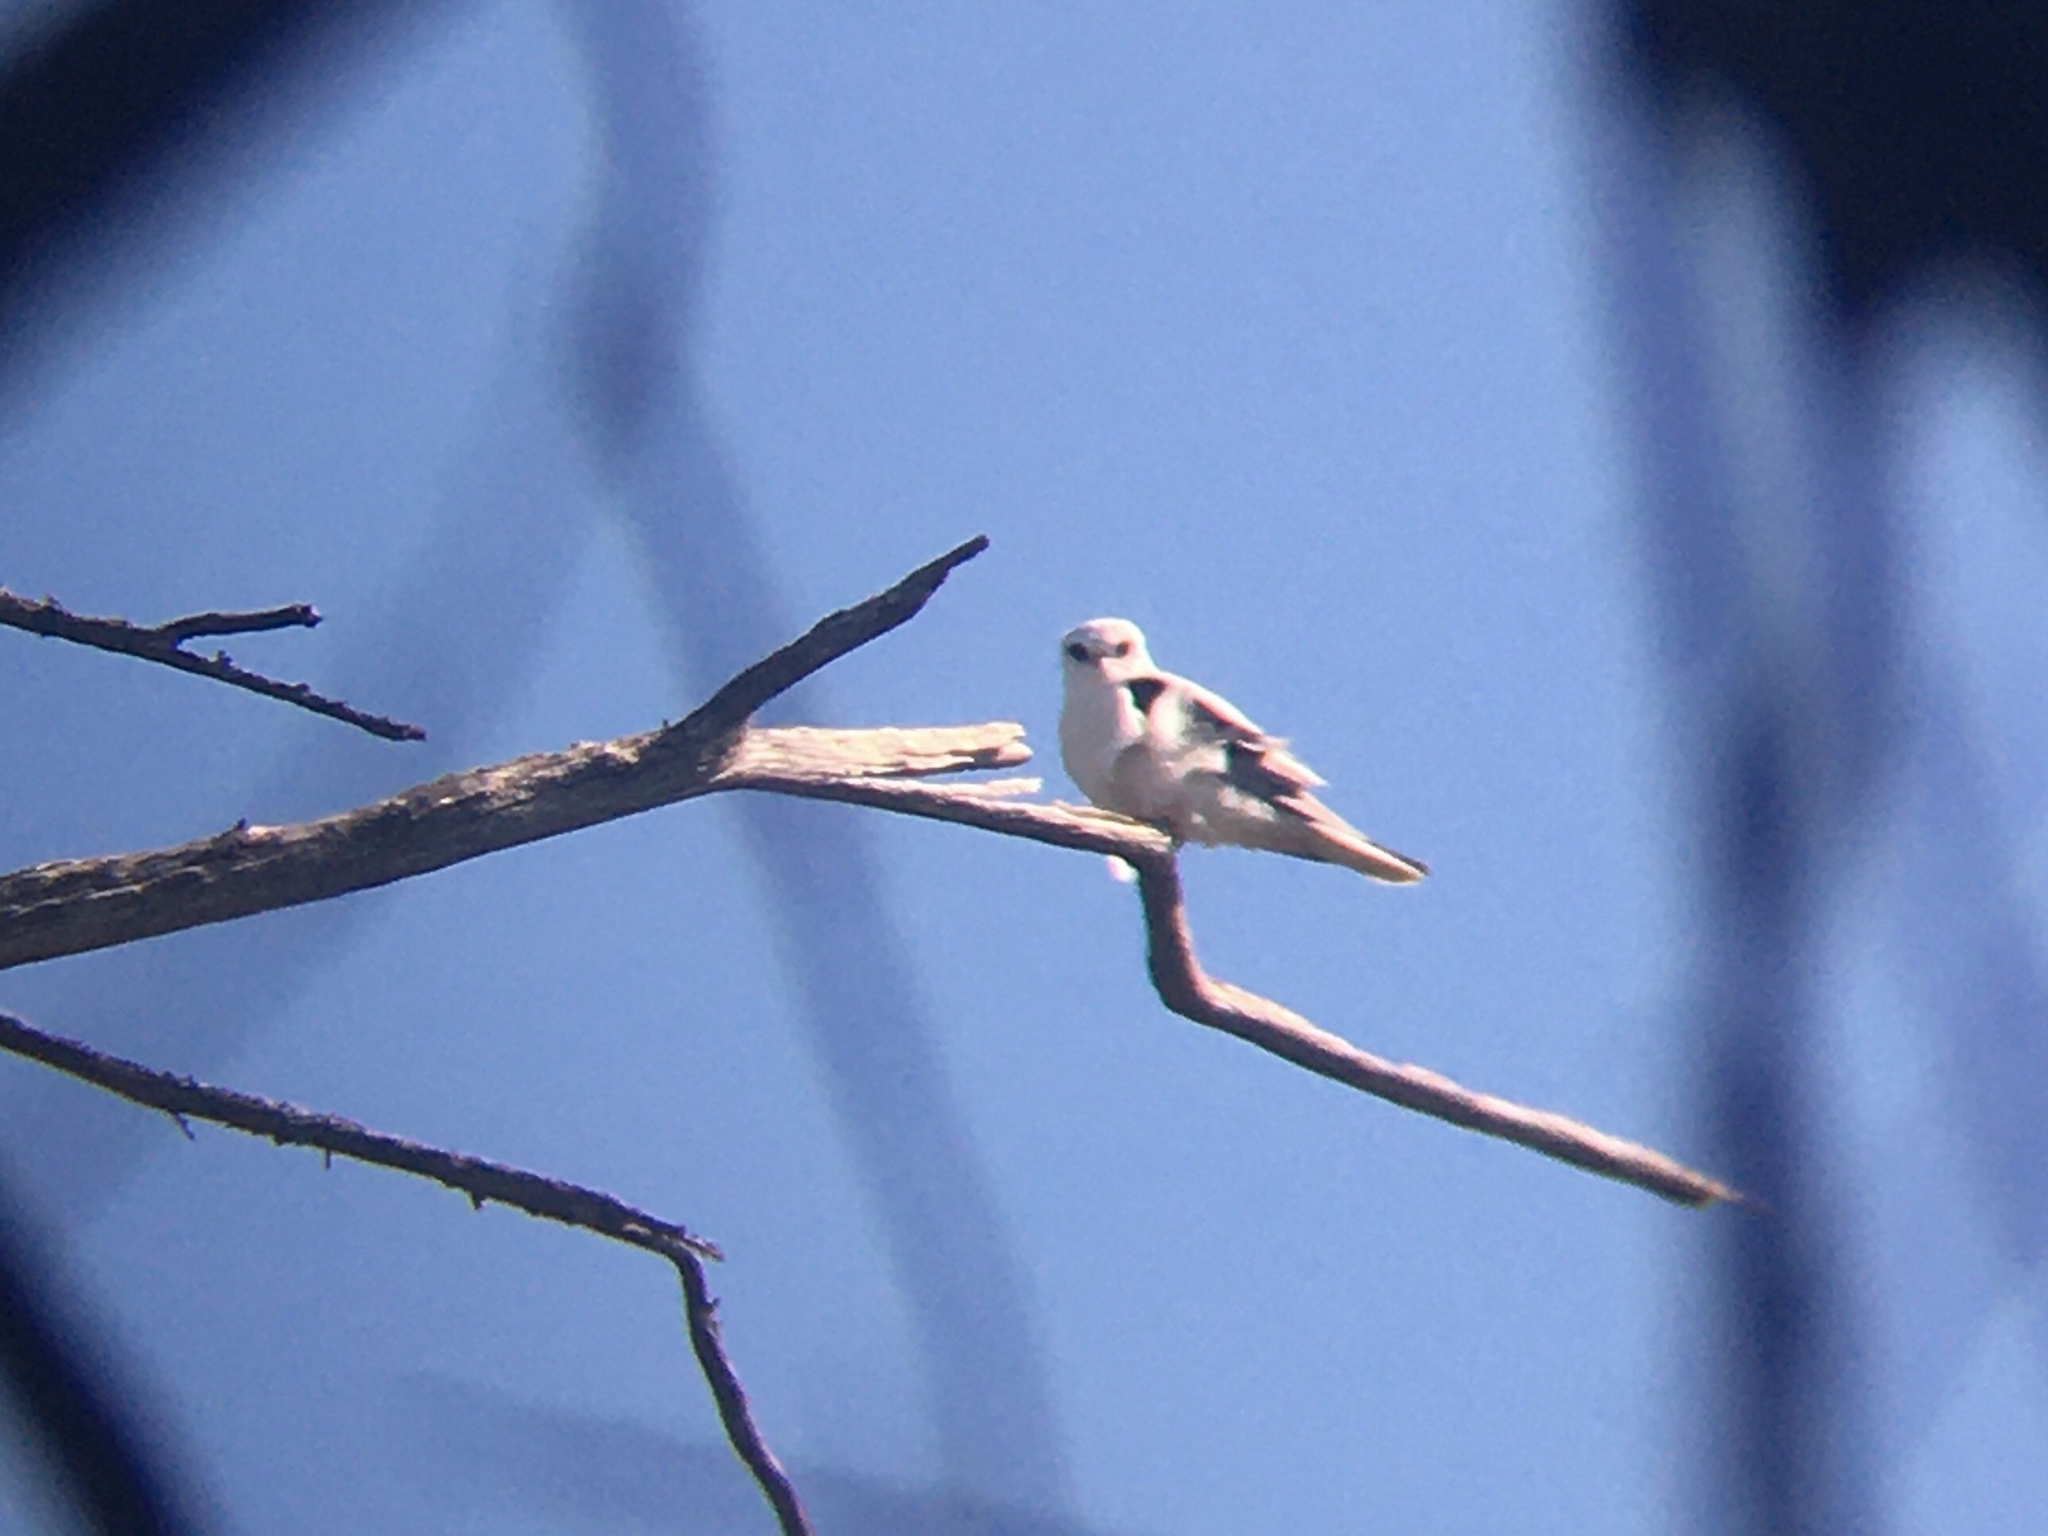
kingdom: Animalia
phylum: Chordata
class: Aves
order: Accipitriformes
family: Accipitridae
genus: Elanus
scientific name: Elanus leucurus
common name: White-tailed kite
